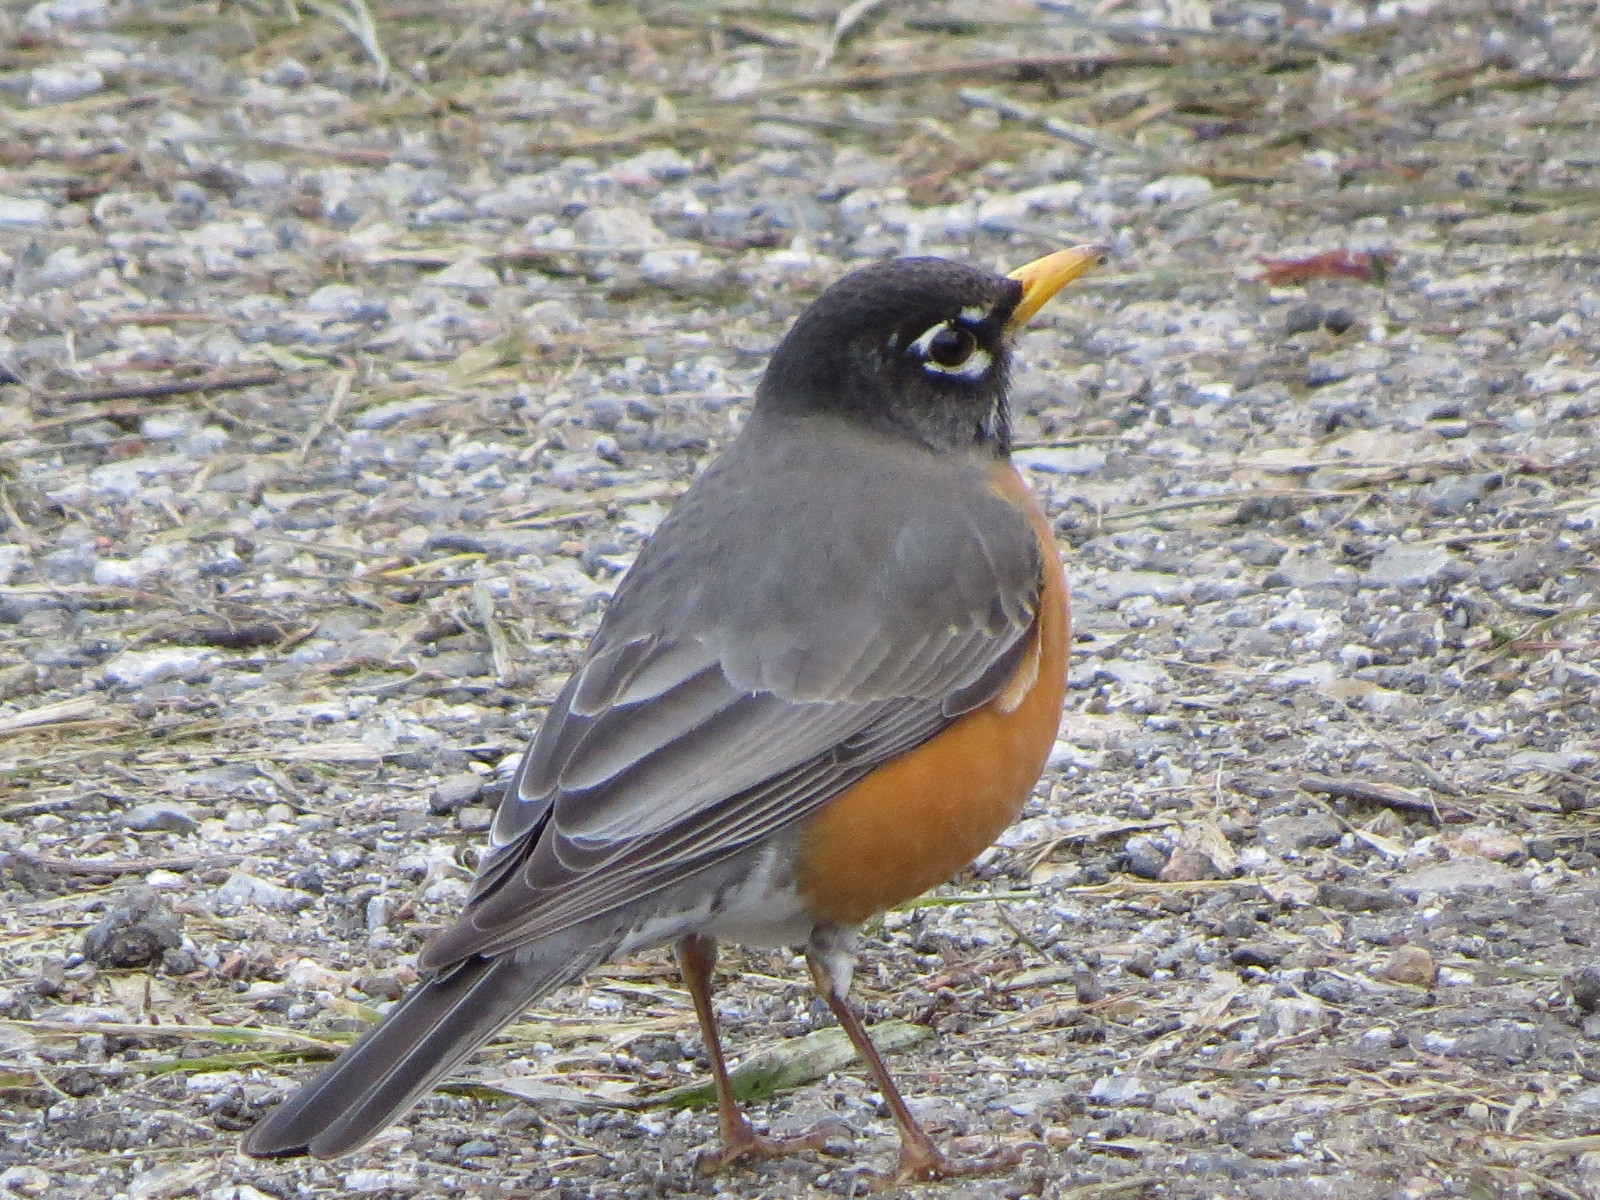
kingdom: Animalia
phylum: Chordata
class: Aves
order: Passeriformes
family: Turdidae
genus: Turdus
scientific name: Turdus migratorius
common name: American robin
